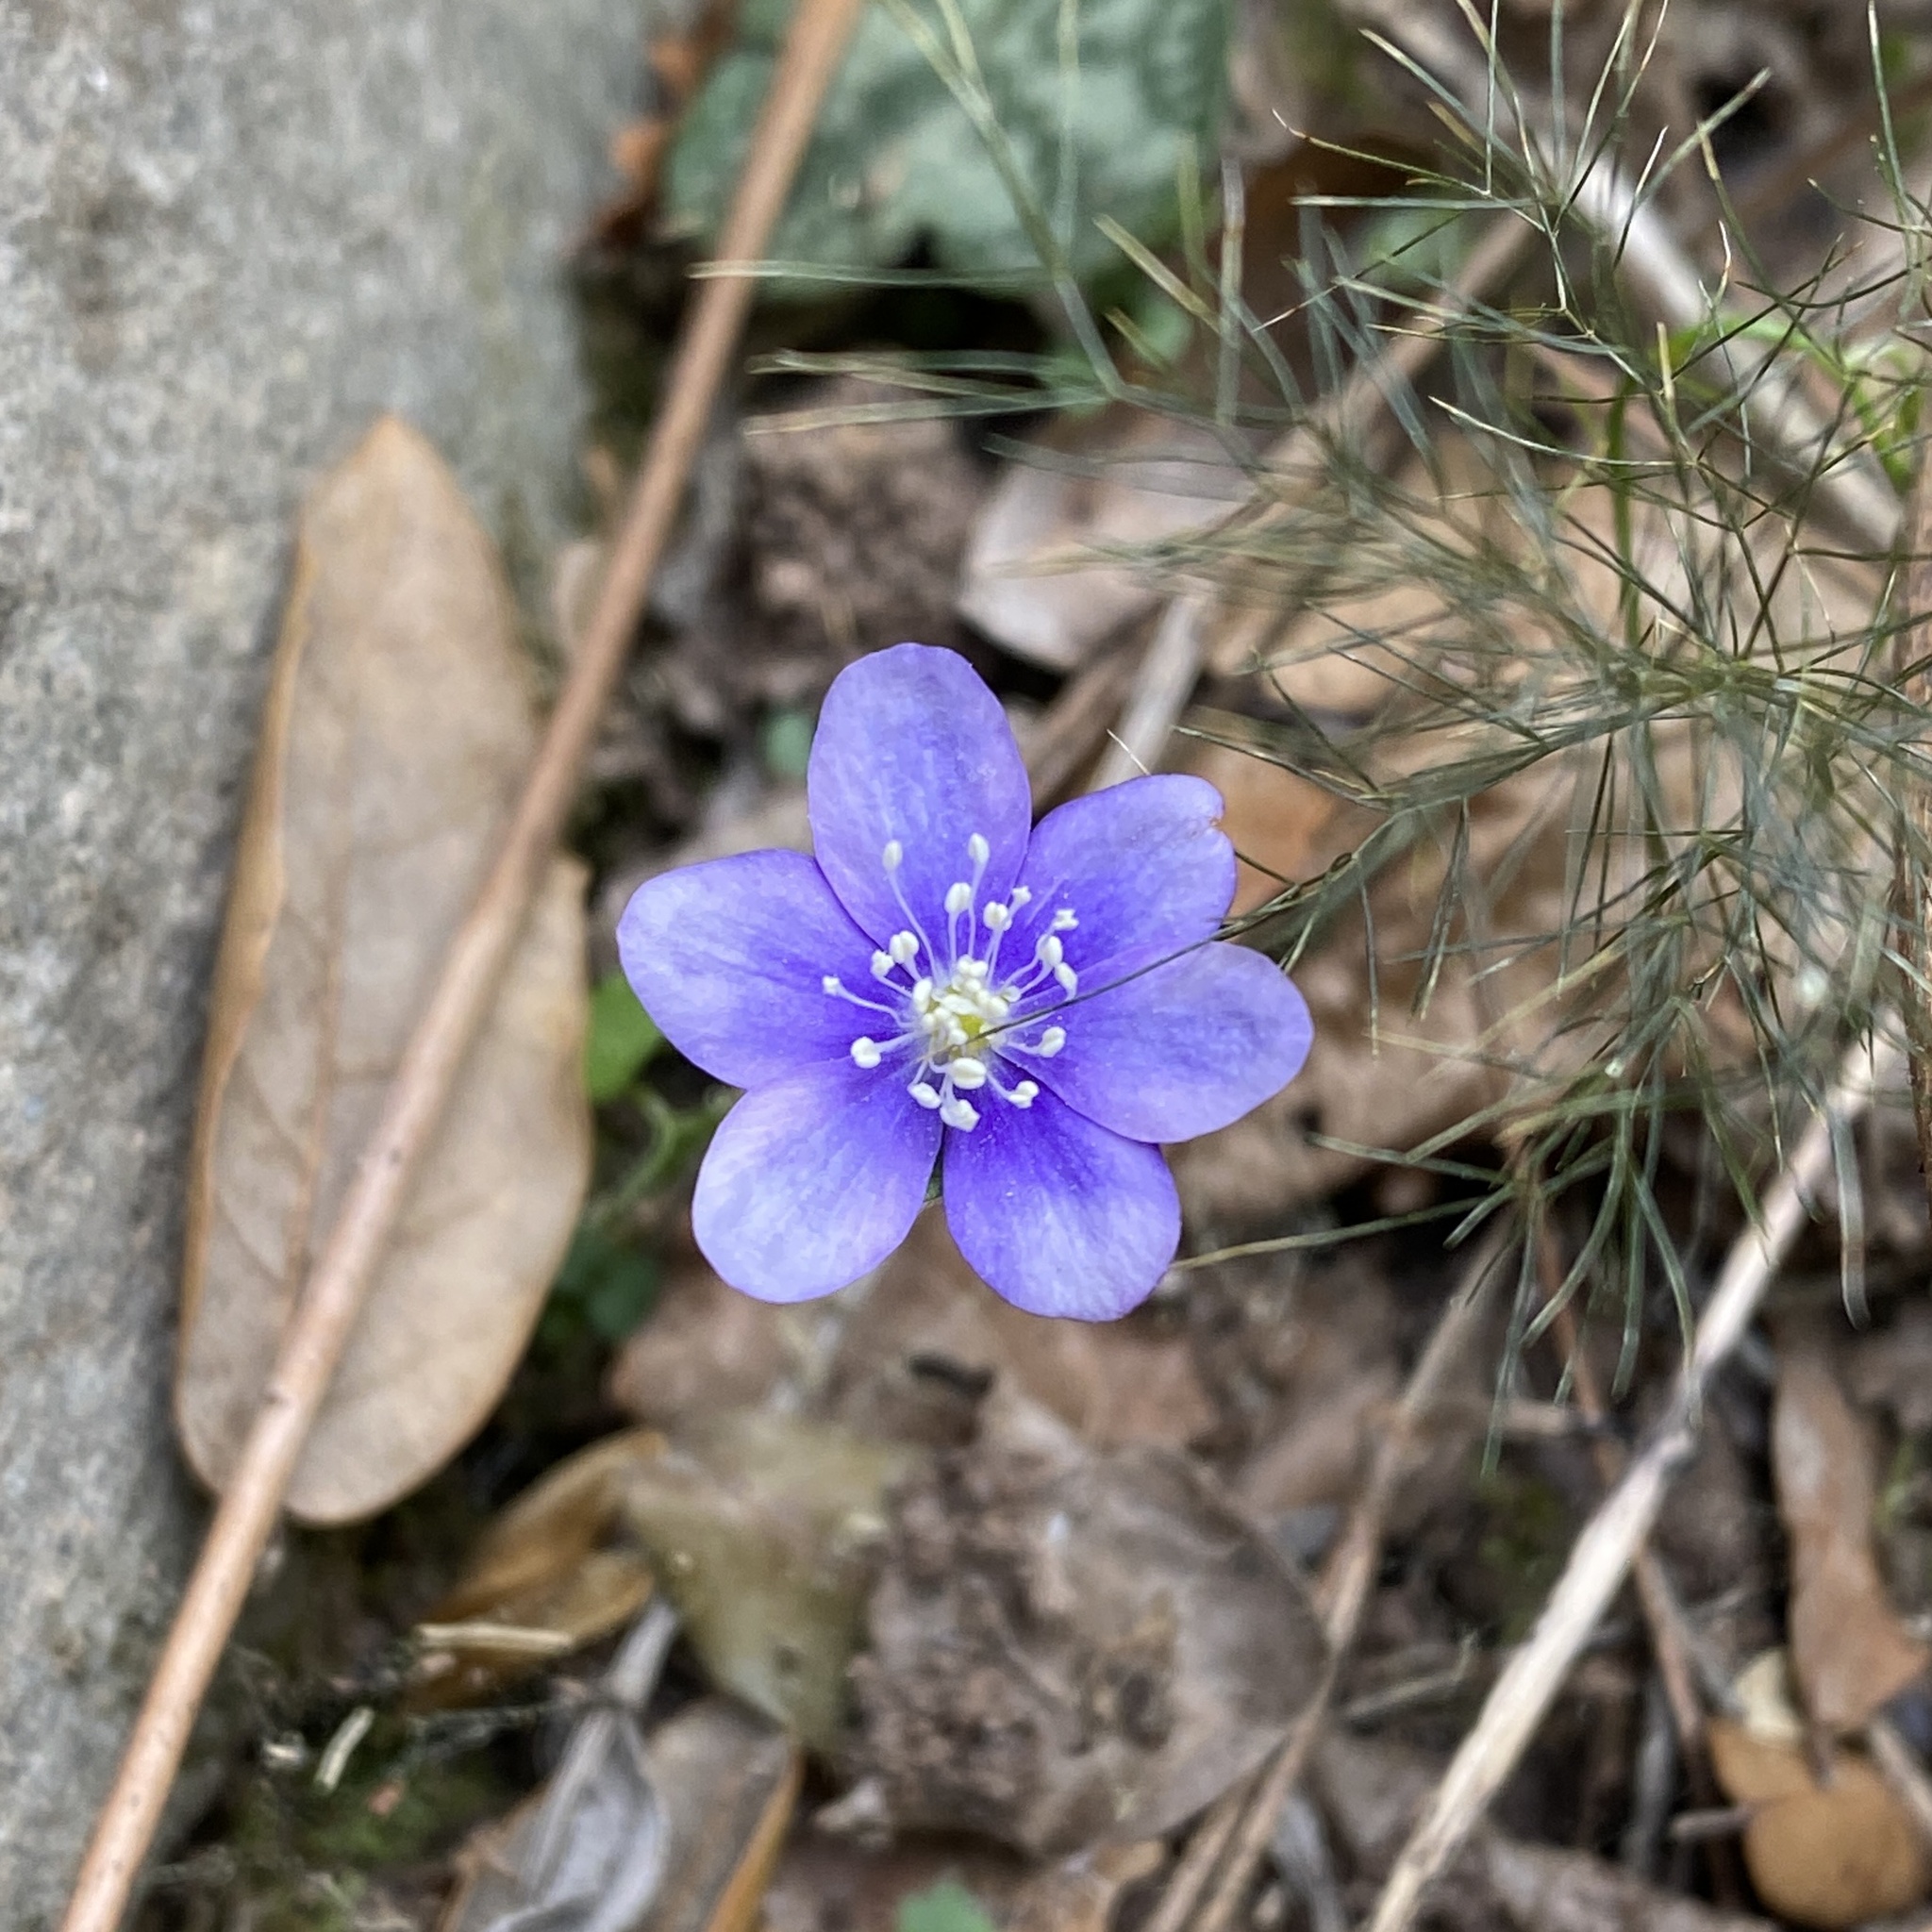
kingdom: Plantae
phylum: Tracheophyta
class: Magnoliopsida
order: Ranunculales
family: Ranunculaceae
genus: Hepatica
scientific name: Hepatica nobilis
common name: Liverleaf
